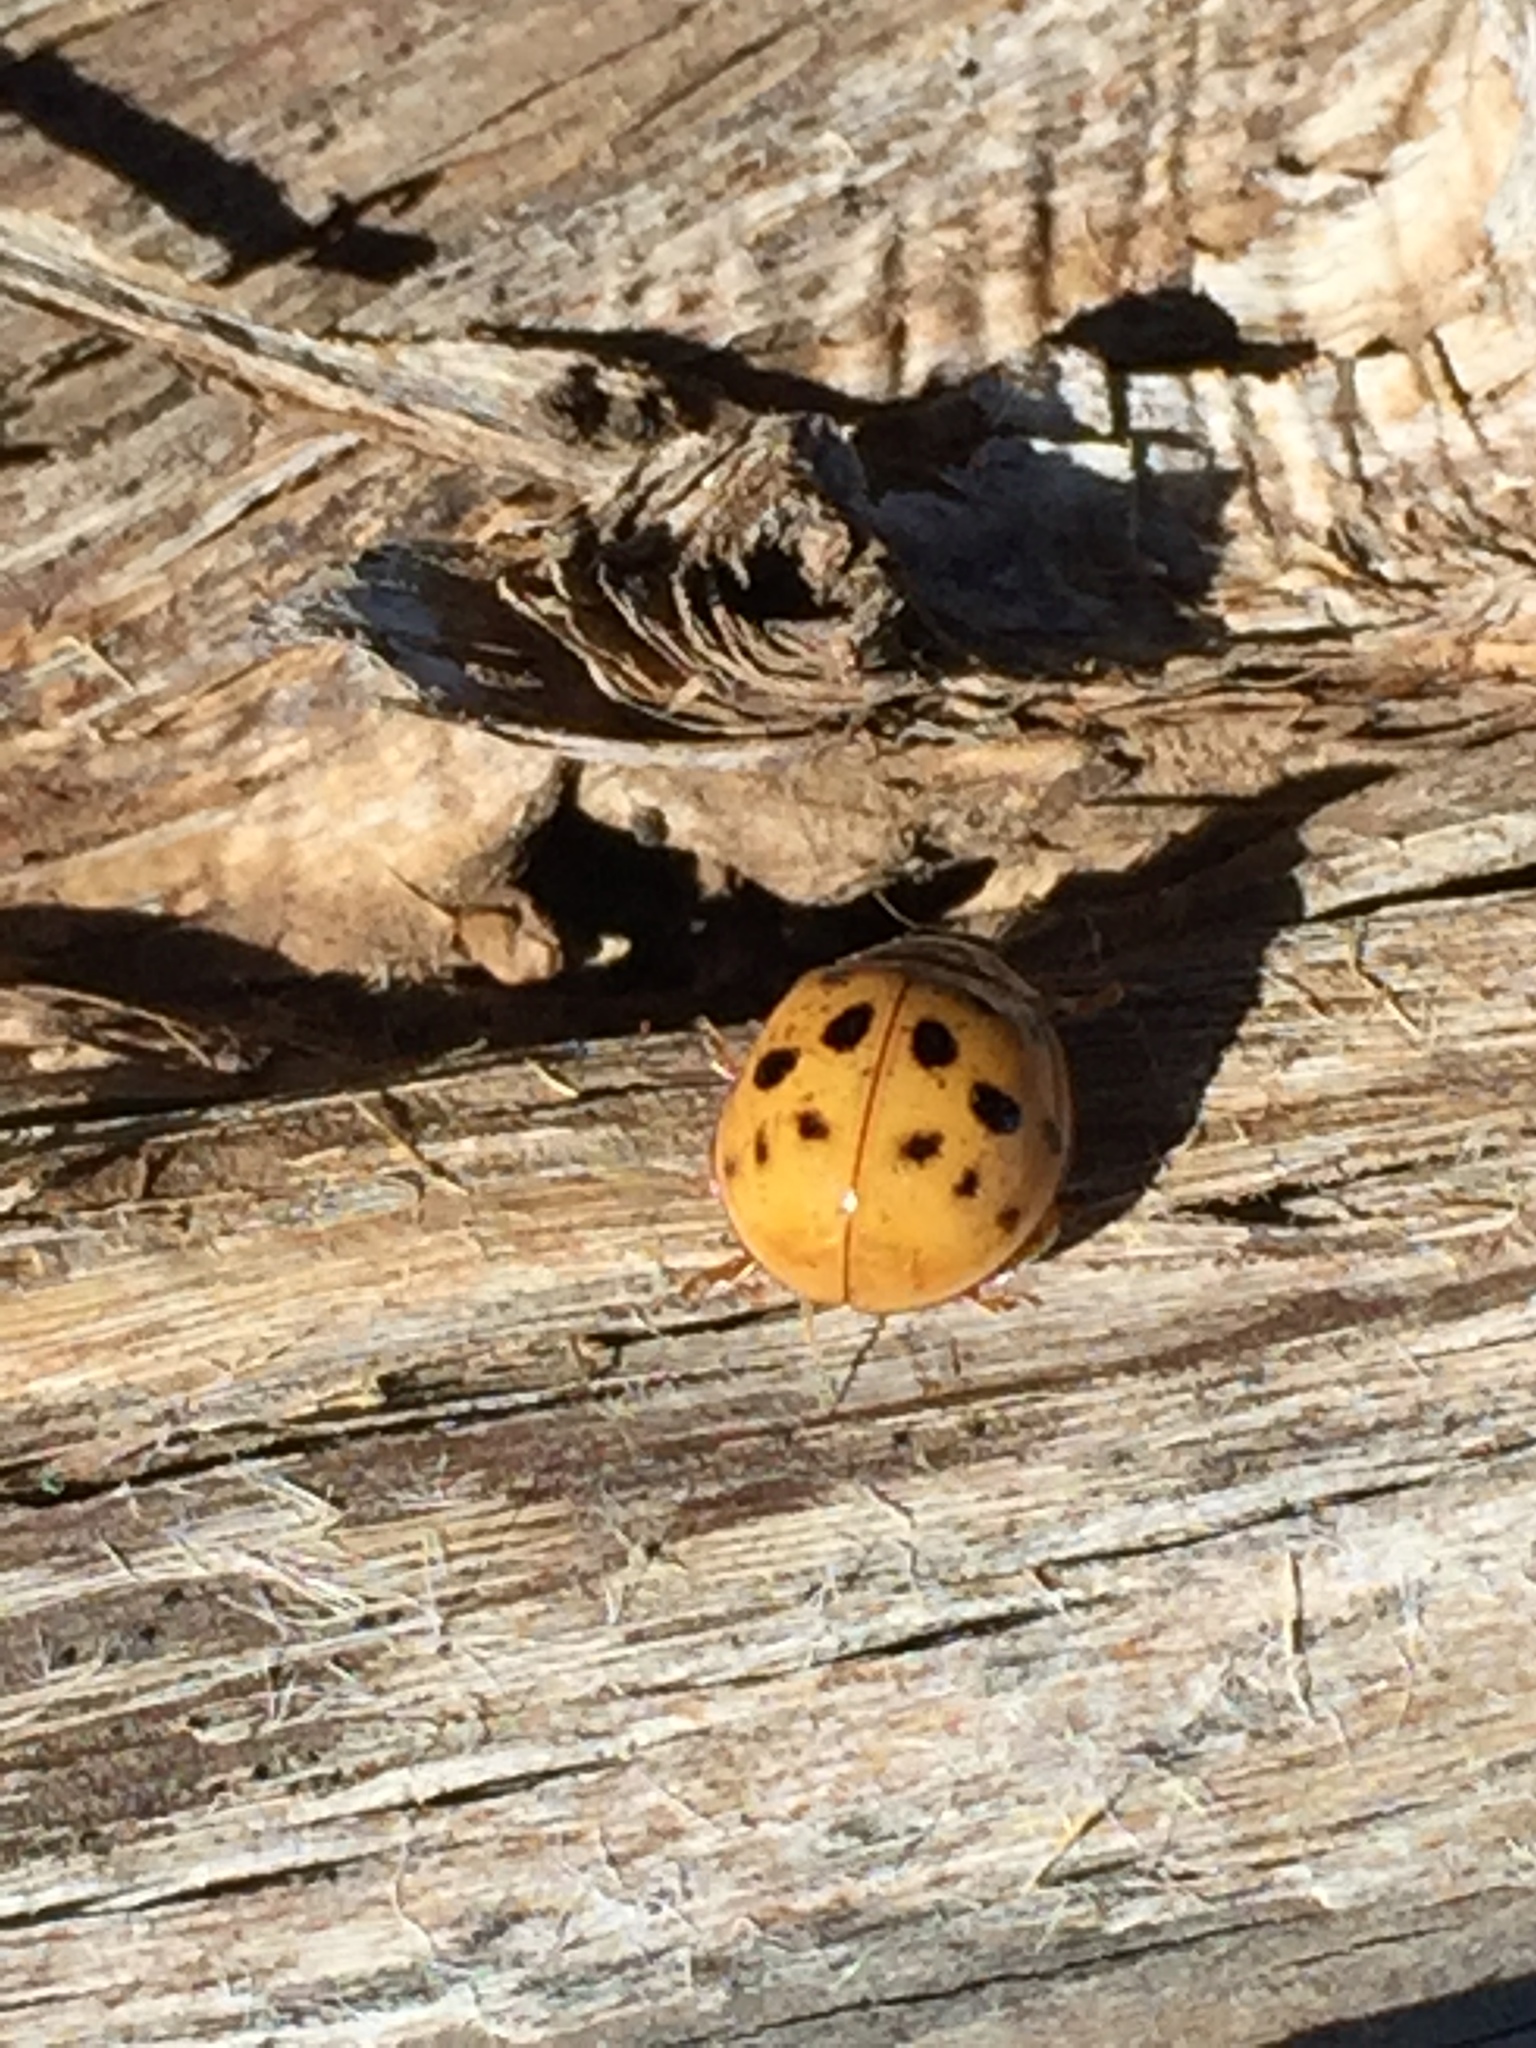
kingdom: Animalia
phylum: Arthropoda
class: Insecta
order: Coleoptera
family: Coccinellidae
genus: Harmonia
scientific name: Harmonia axyridis
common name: Harlequin ladybird
